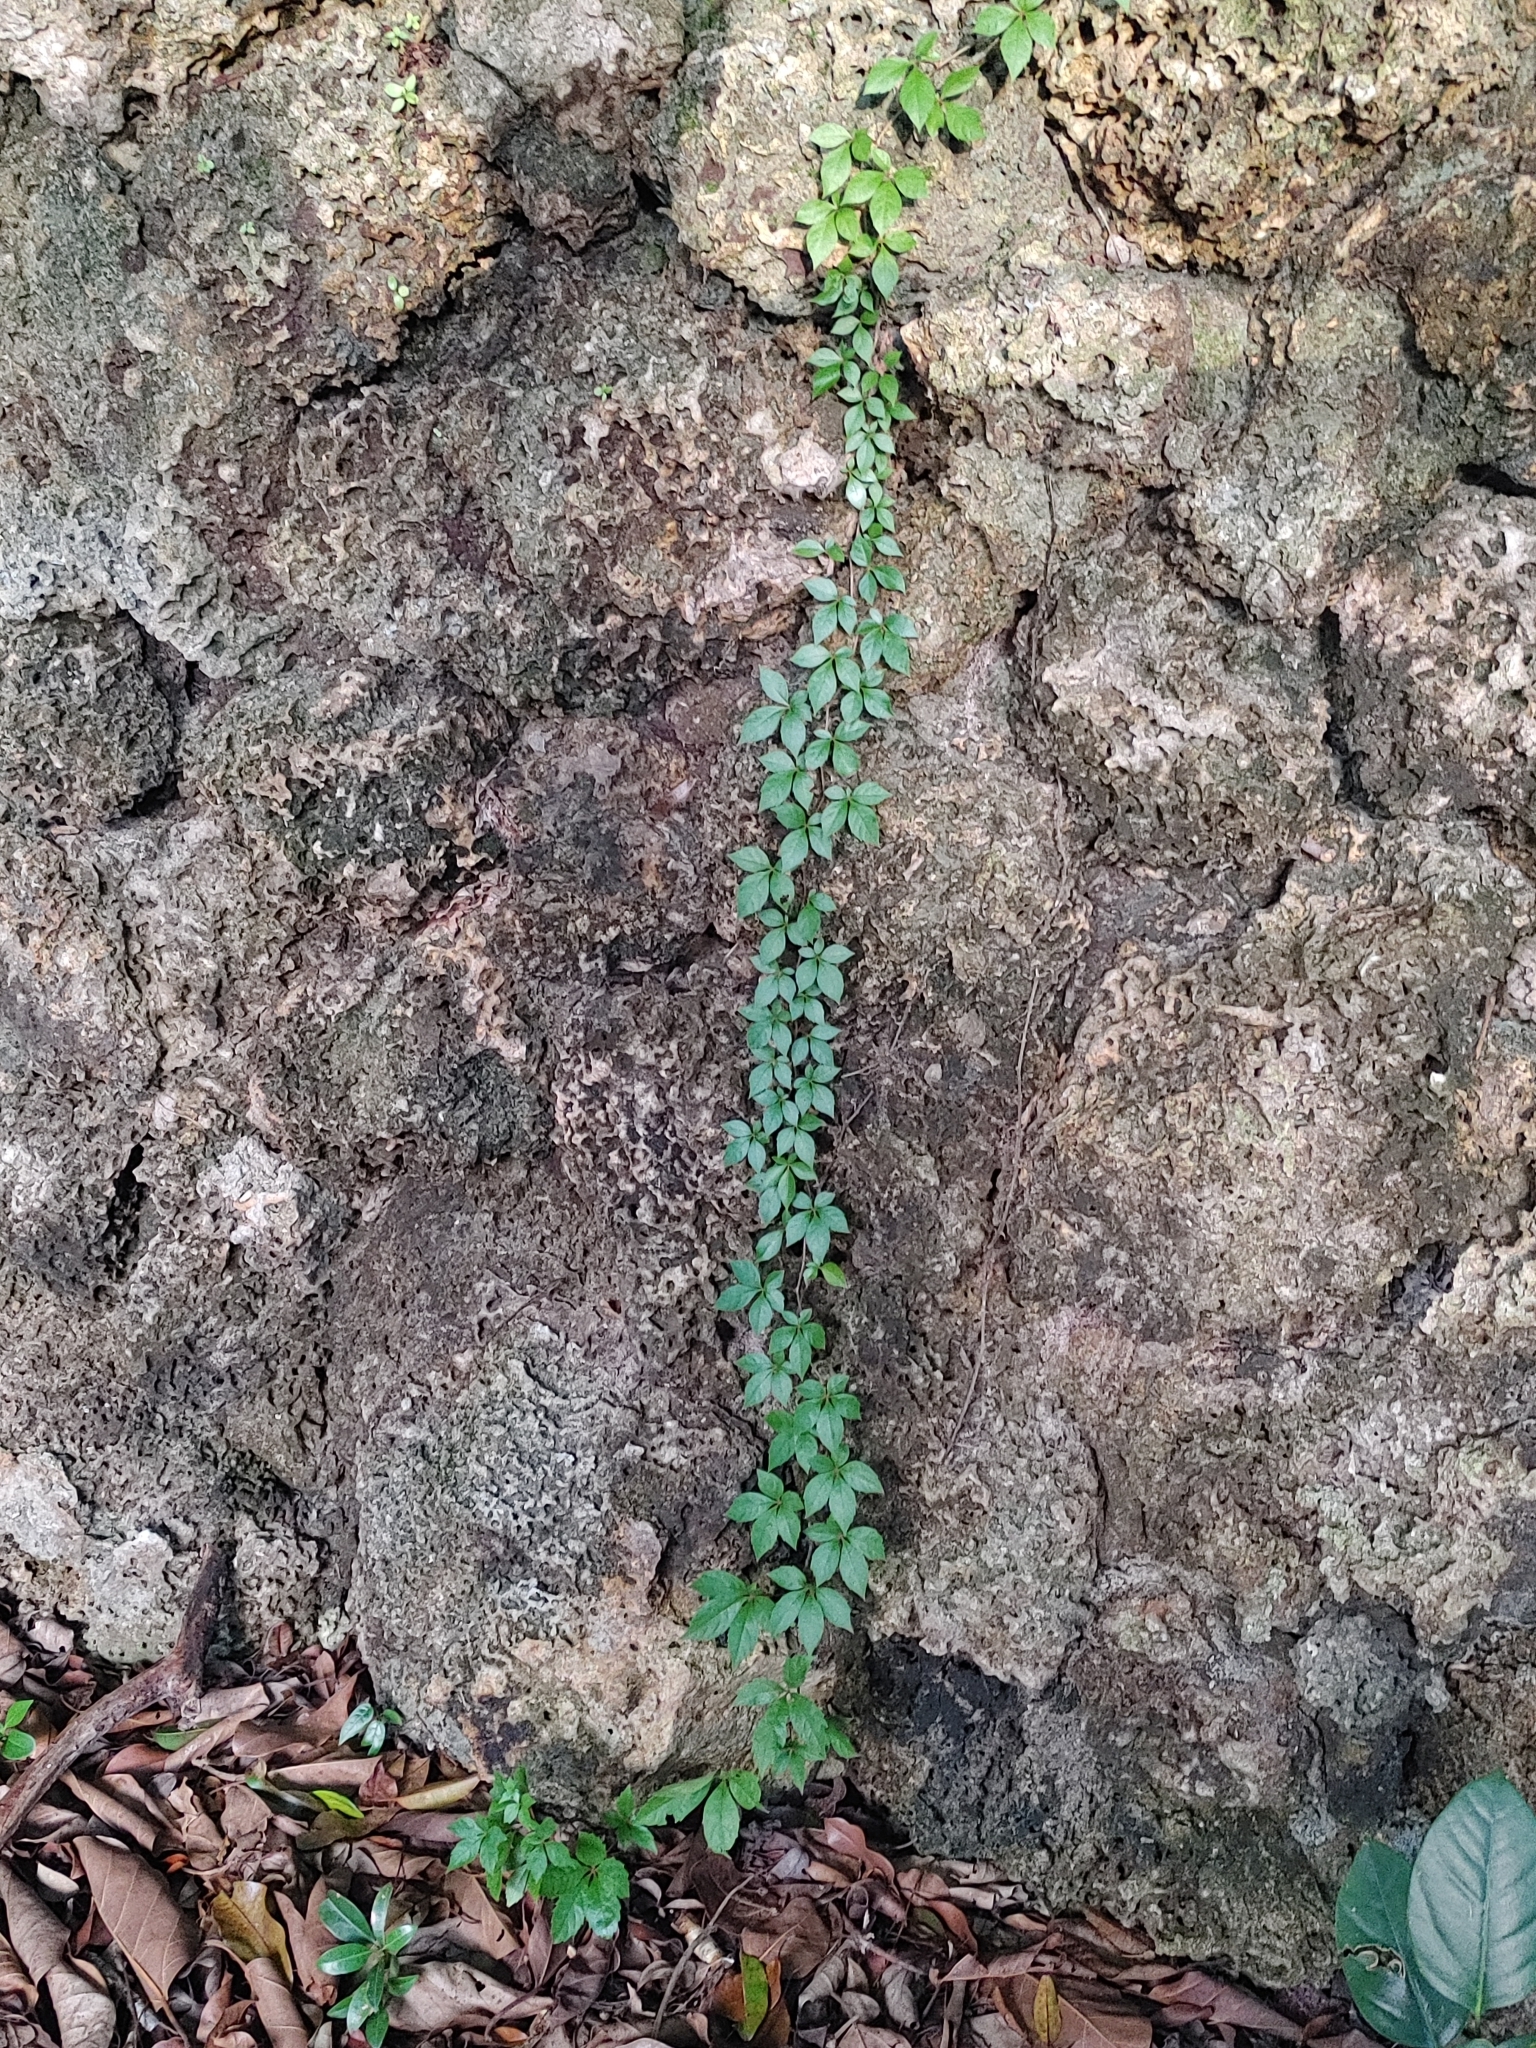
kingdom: Plantae
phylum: Tracheophyta
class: Magnoliopsida
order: Vitales
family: Vitaceae
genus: Parthenocissus
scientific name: Parthenocissus quinquefolia
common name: Virginia-creeper
